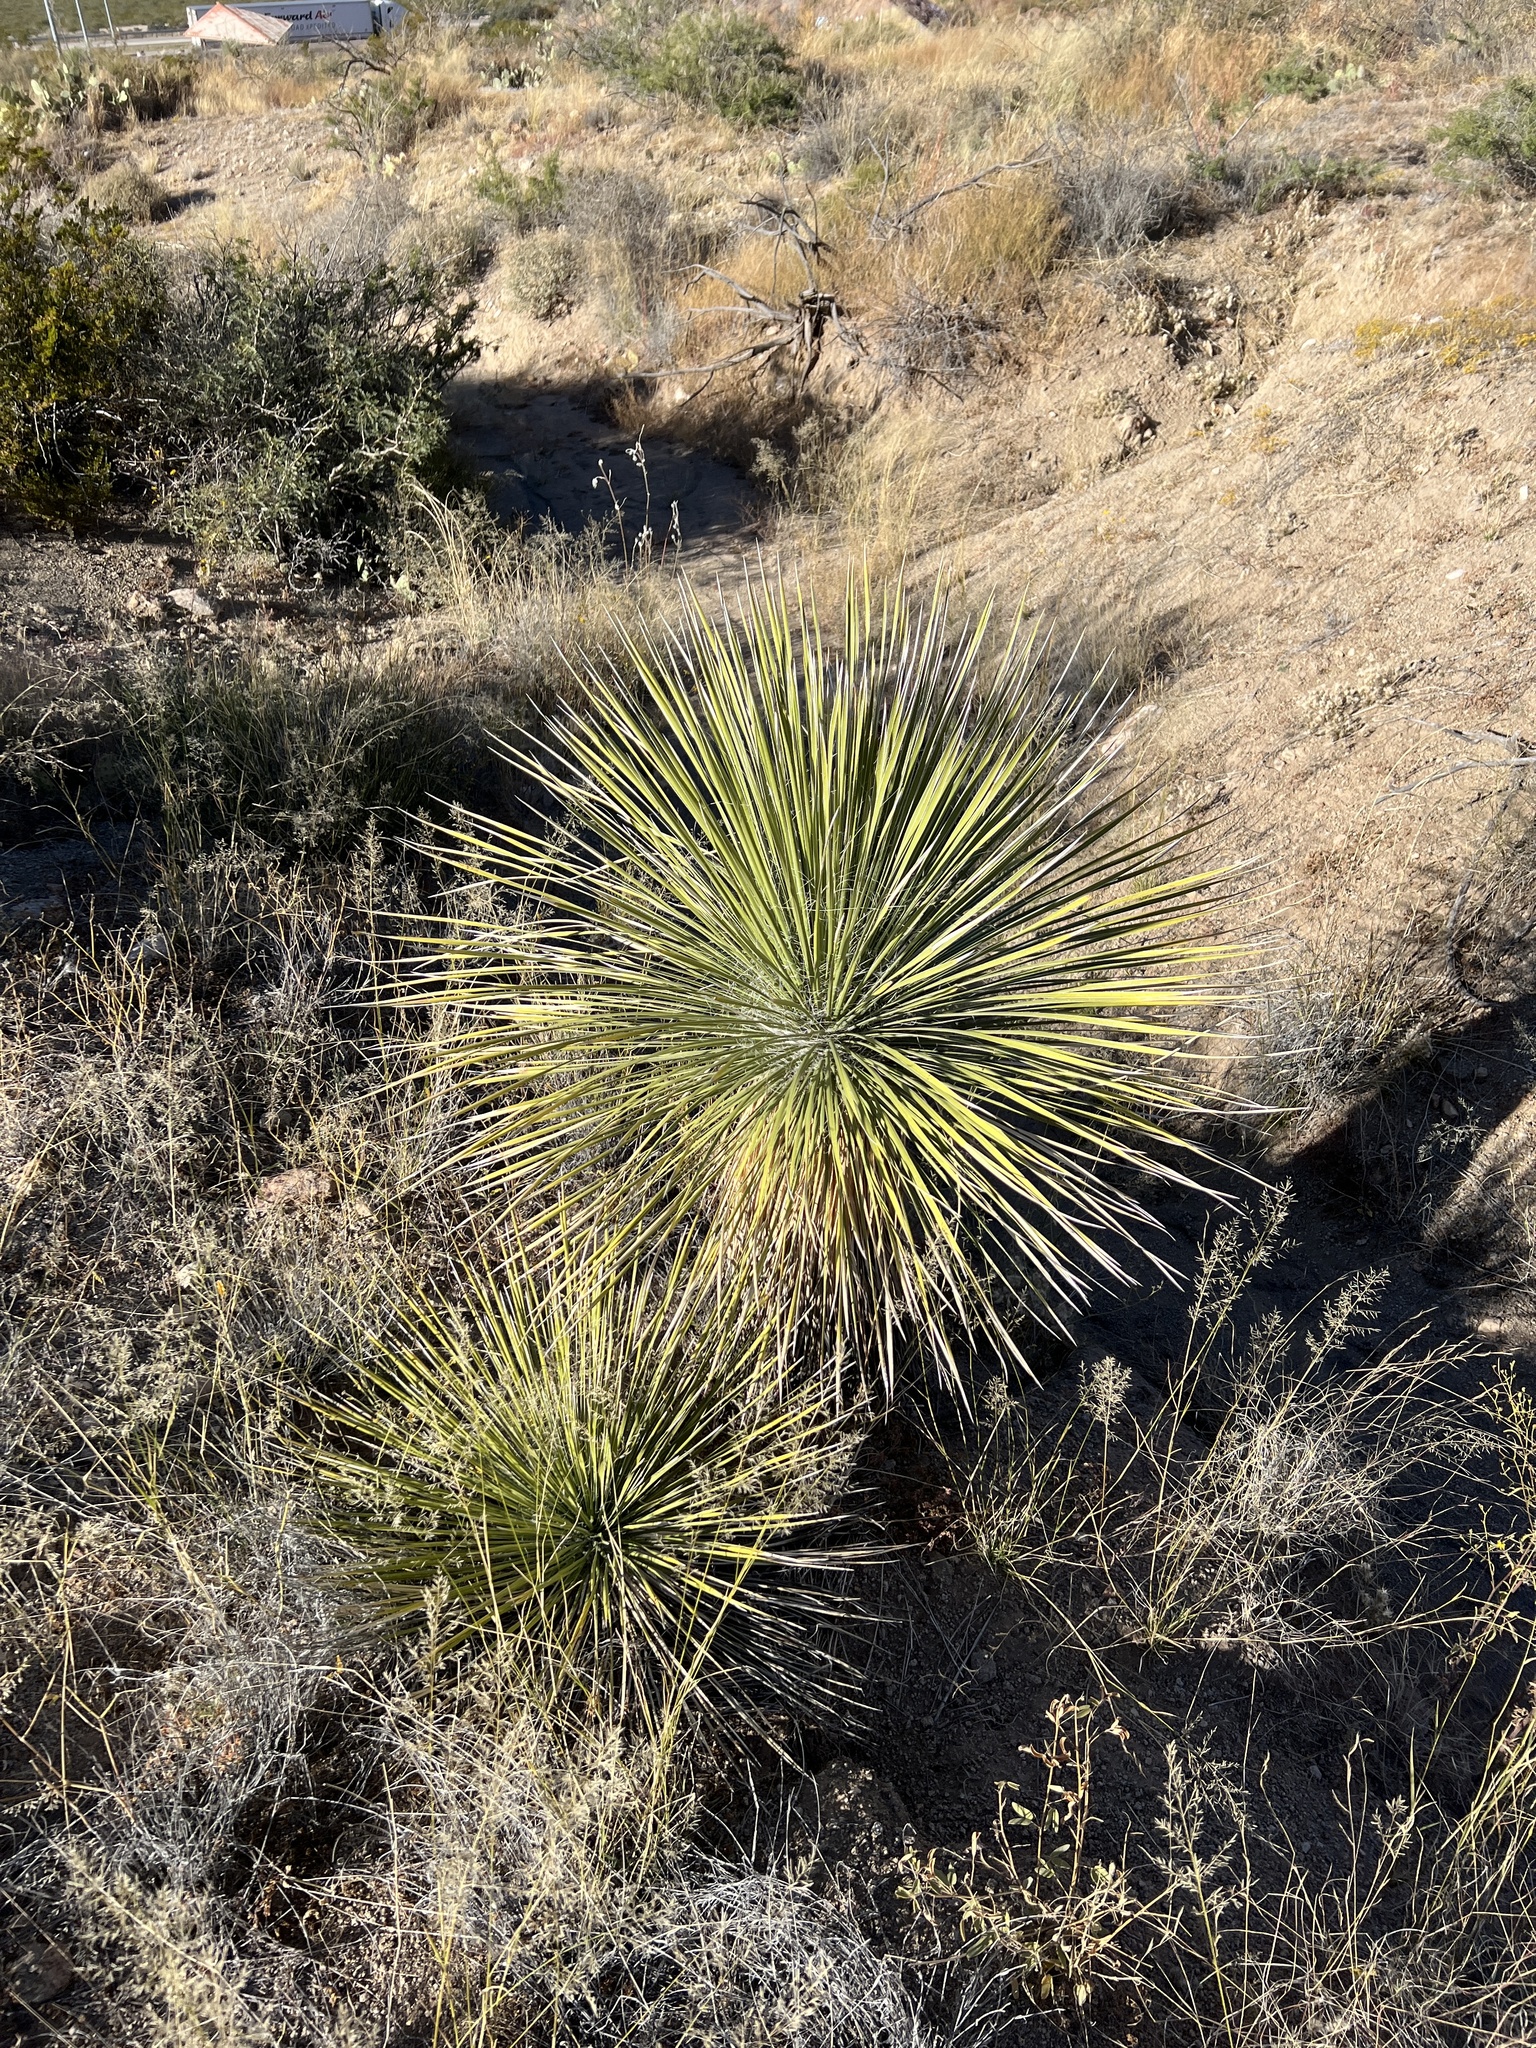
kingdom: Plantae
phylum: Tracheophyta
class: Liliopsida
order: Asparagales
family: Asparagaceae
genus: Yucca
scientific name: Yucca elata
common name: Palmella
